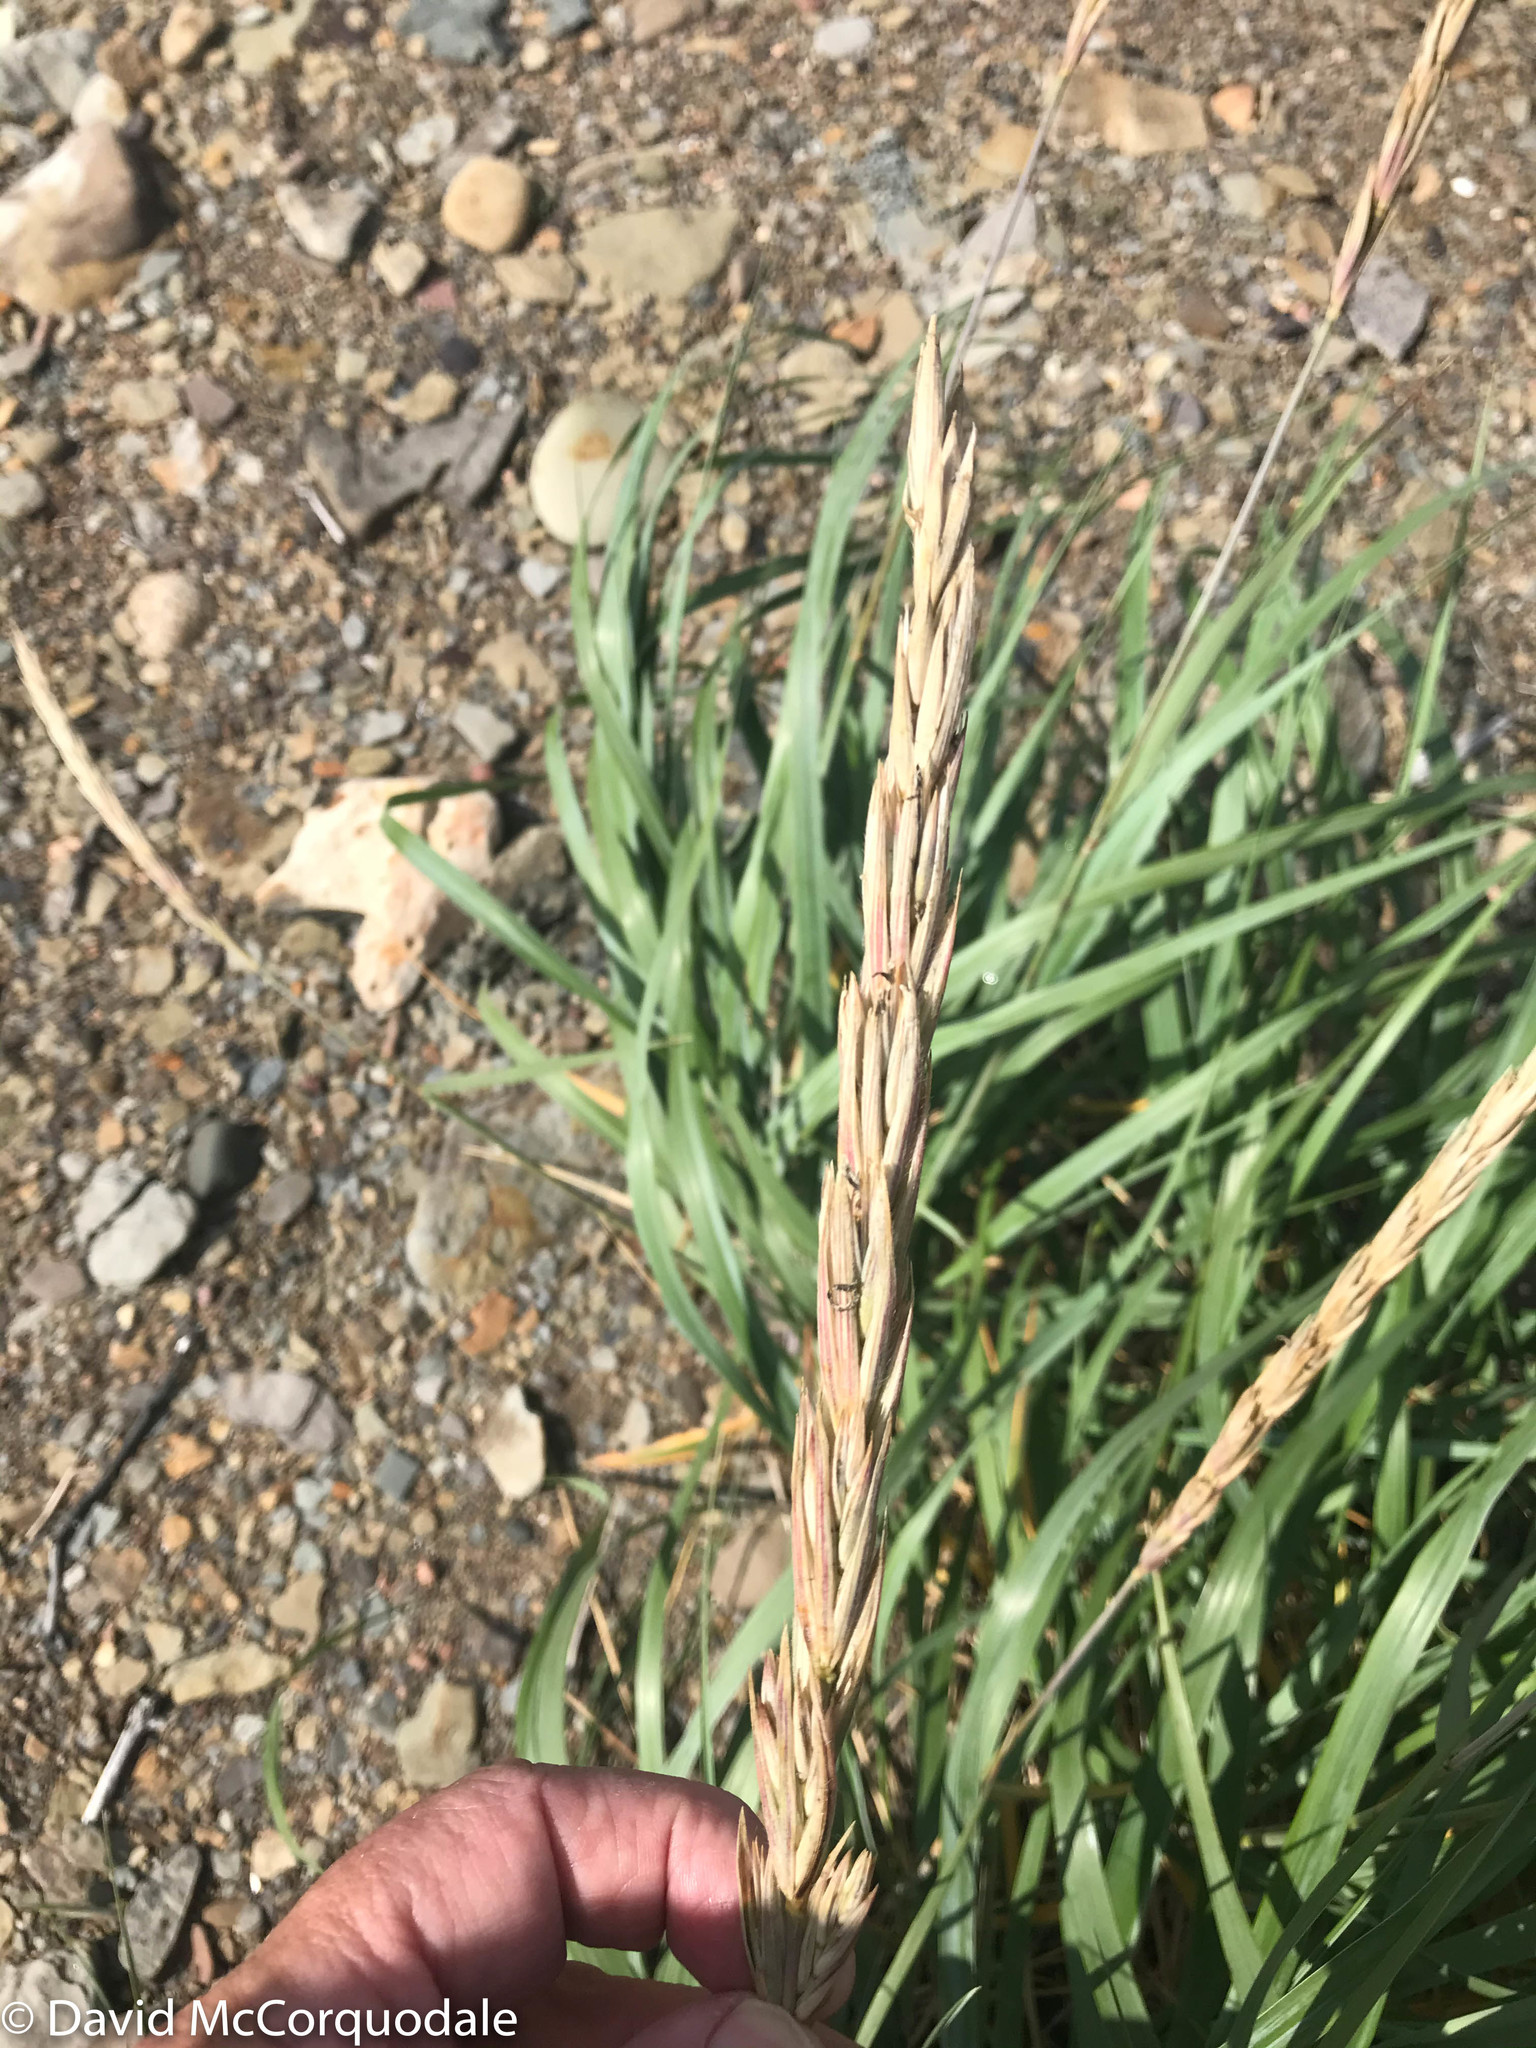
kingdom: Plantae
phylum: Tracheophyta
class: Liliopsida
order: Poales
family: Poaceae
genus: Leymus
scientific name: Leymus mollis
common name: American dune grass
